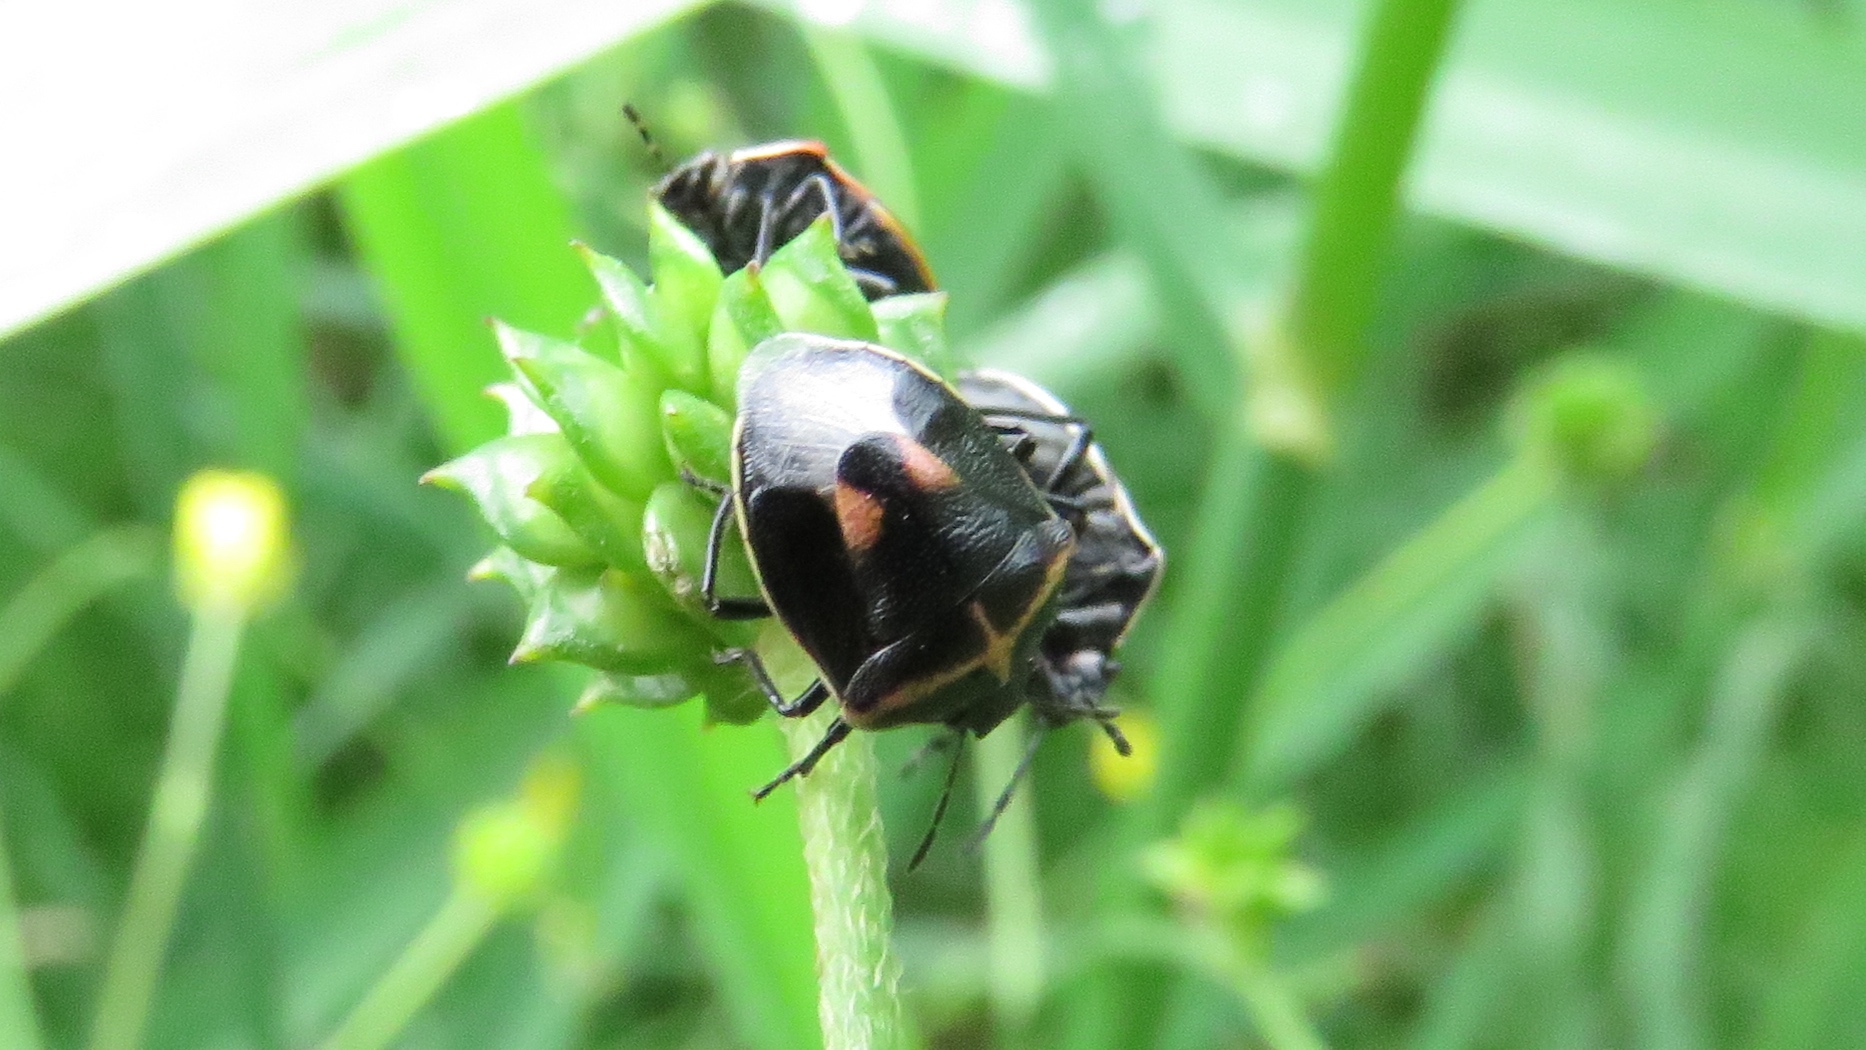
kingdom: Animalia
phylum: Arthropoda
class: Insecta
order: Hemiptera
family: Pentatomidae
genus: Cosmopepla
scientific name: Cosmopepla lintneriana
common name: Twice-stabbed stink bug
